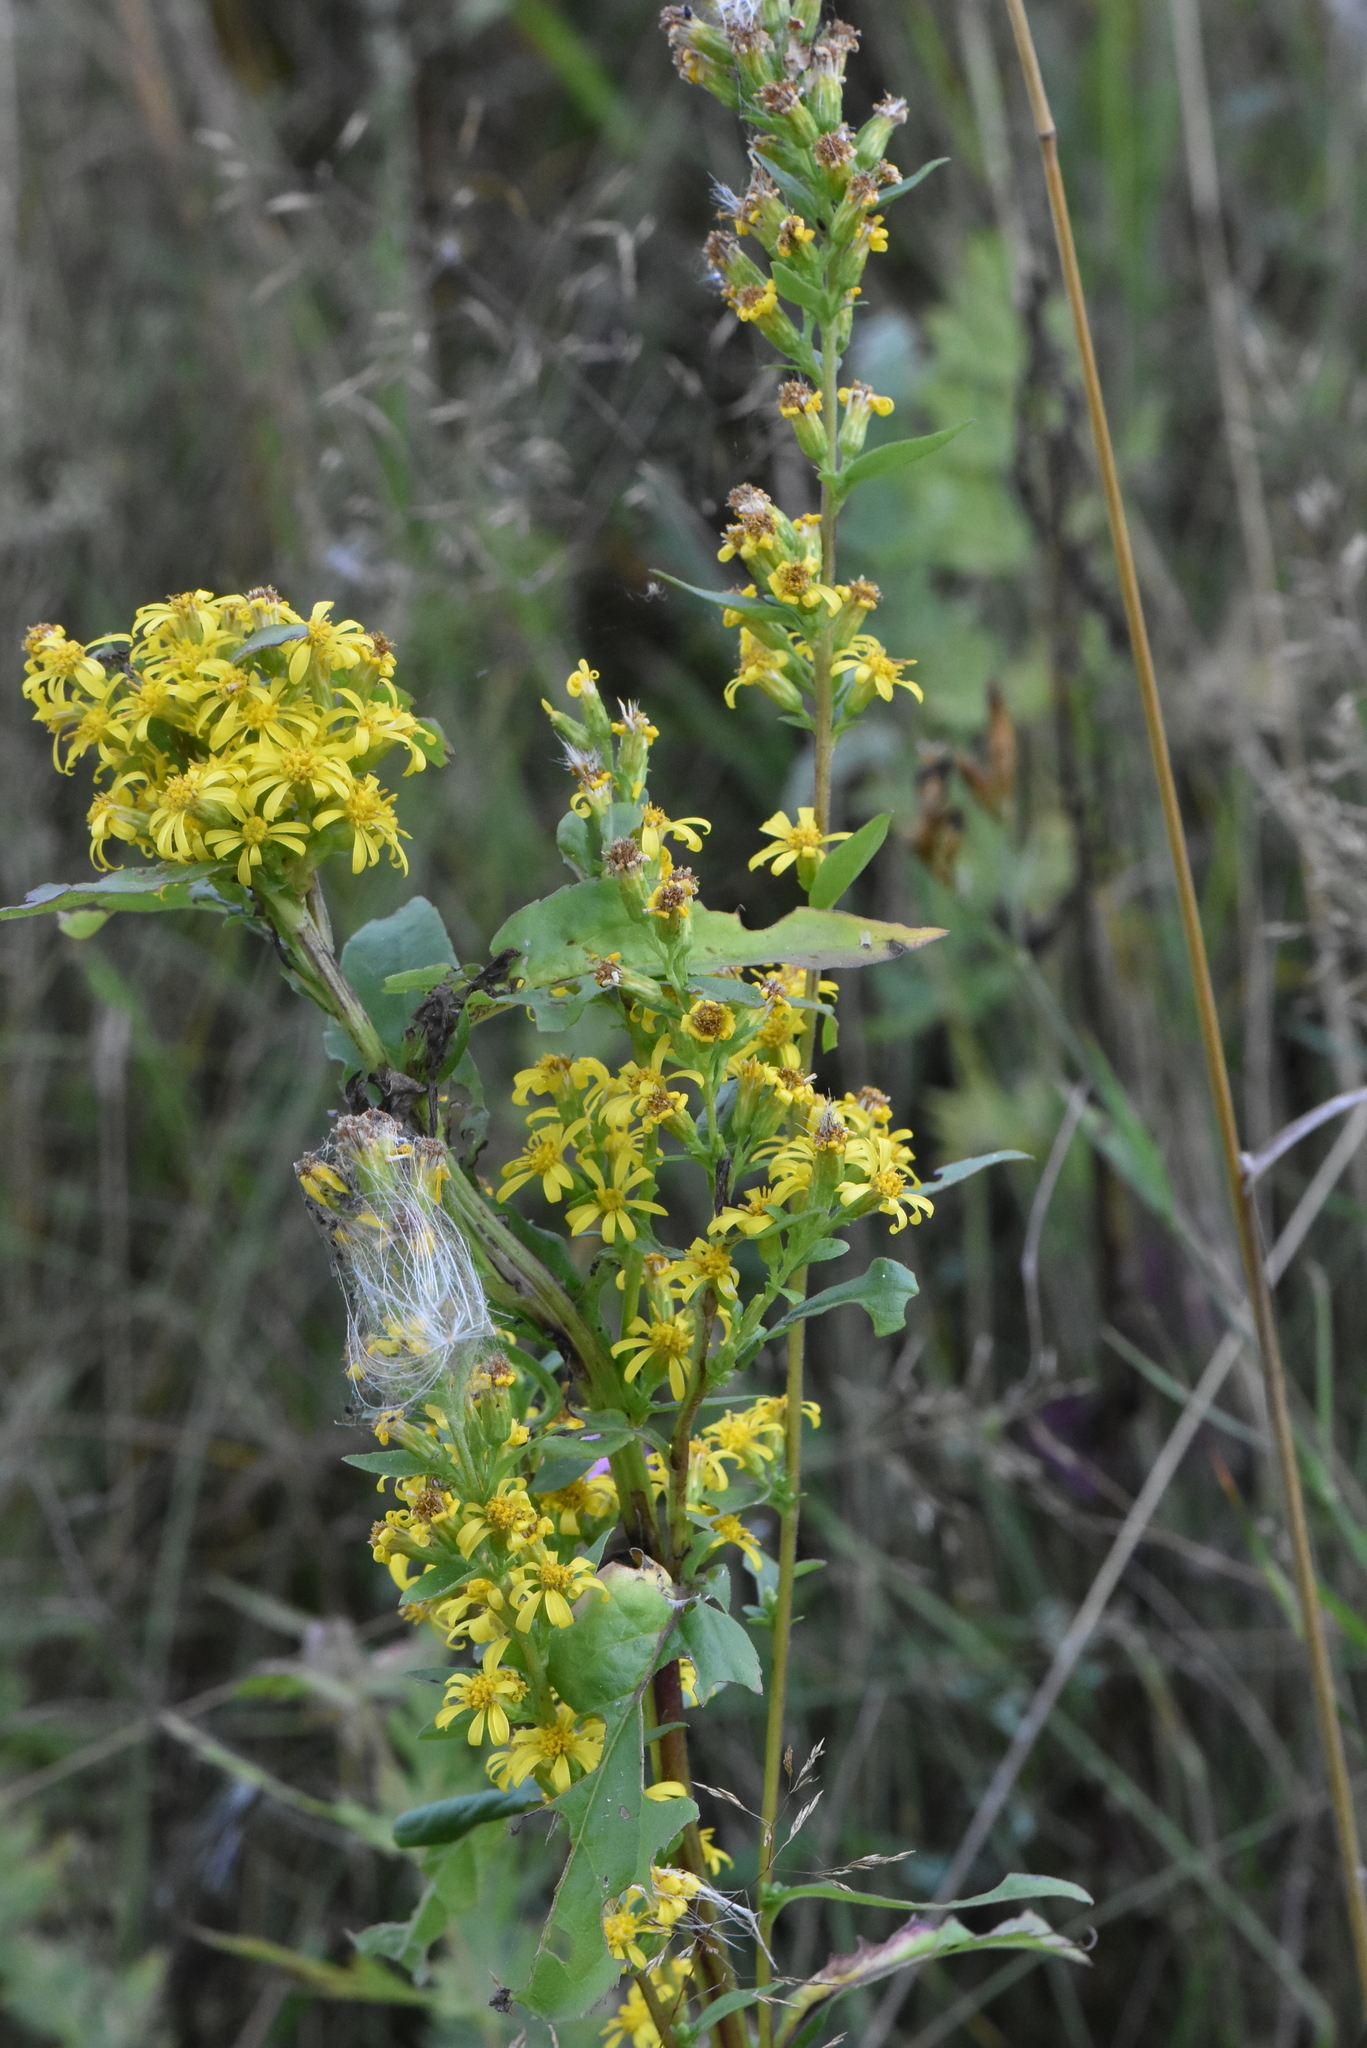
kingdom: Plantae
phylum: Tracheophyta
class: Magnoliopsida
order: Asterales
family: Asteraceae
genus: Solidago
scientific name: Solidago virgaurea
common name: Goldenrod
